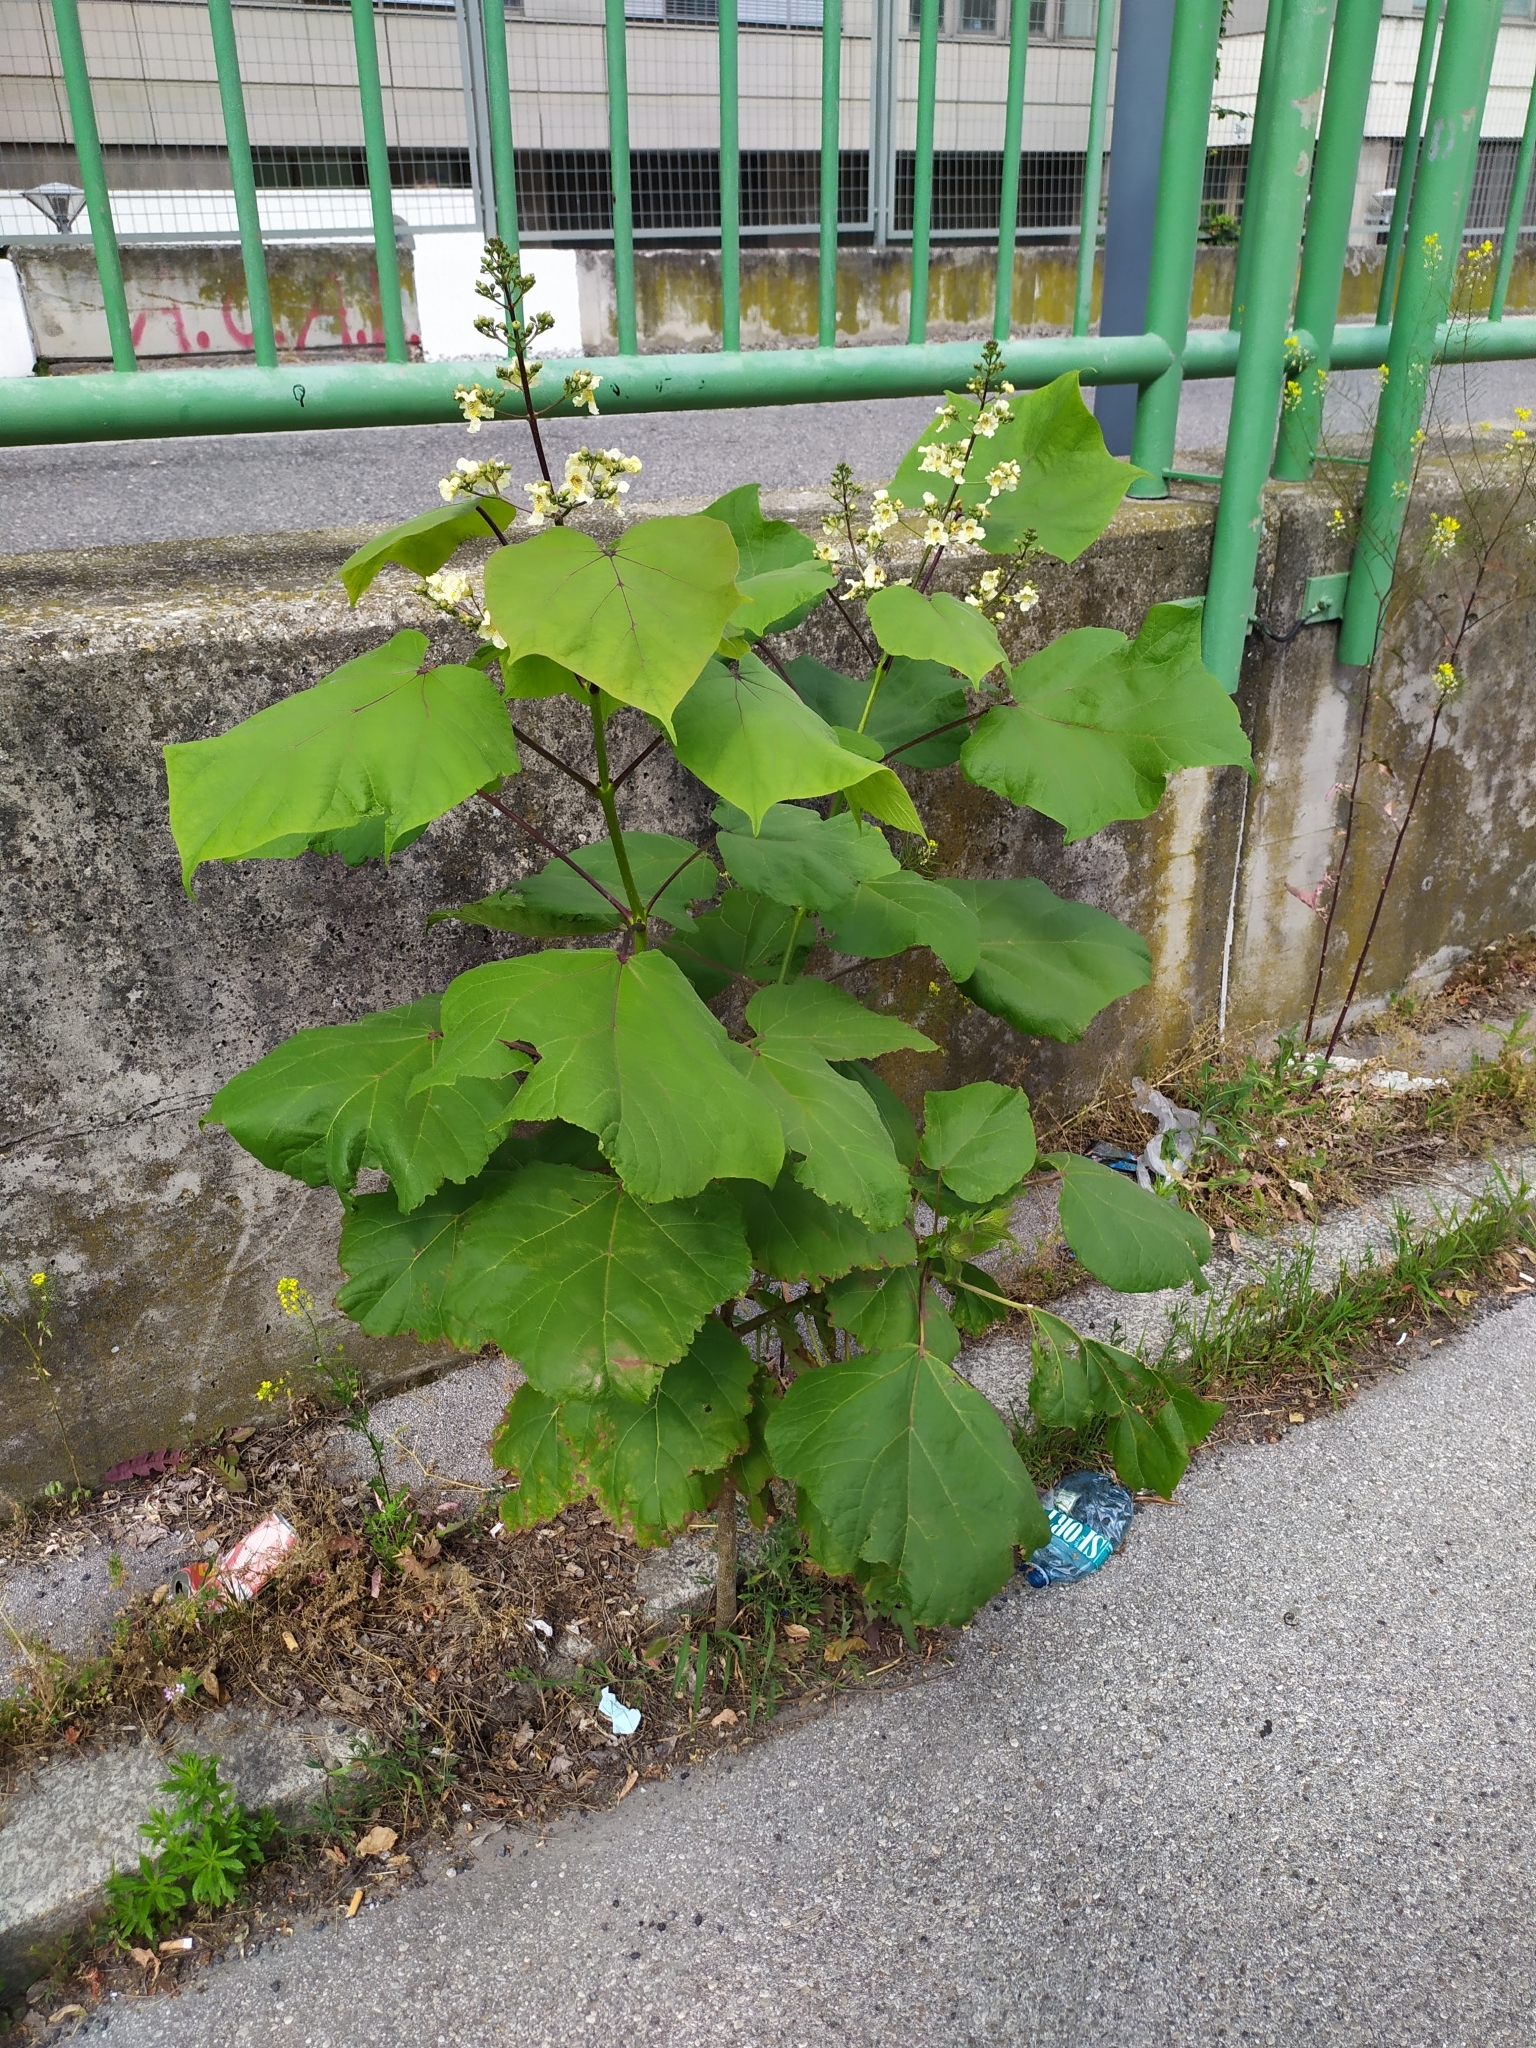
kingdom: Plantae
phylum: Tracheophyta
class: Magnoliopsida
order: Lamiales
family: Bignoniaceae
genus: Catalpa
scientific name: Catalpa ovata
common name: Chinese catalpa
